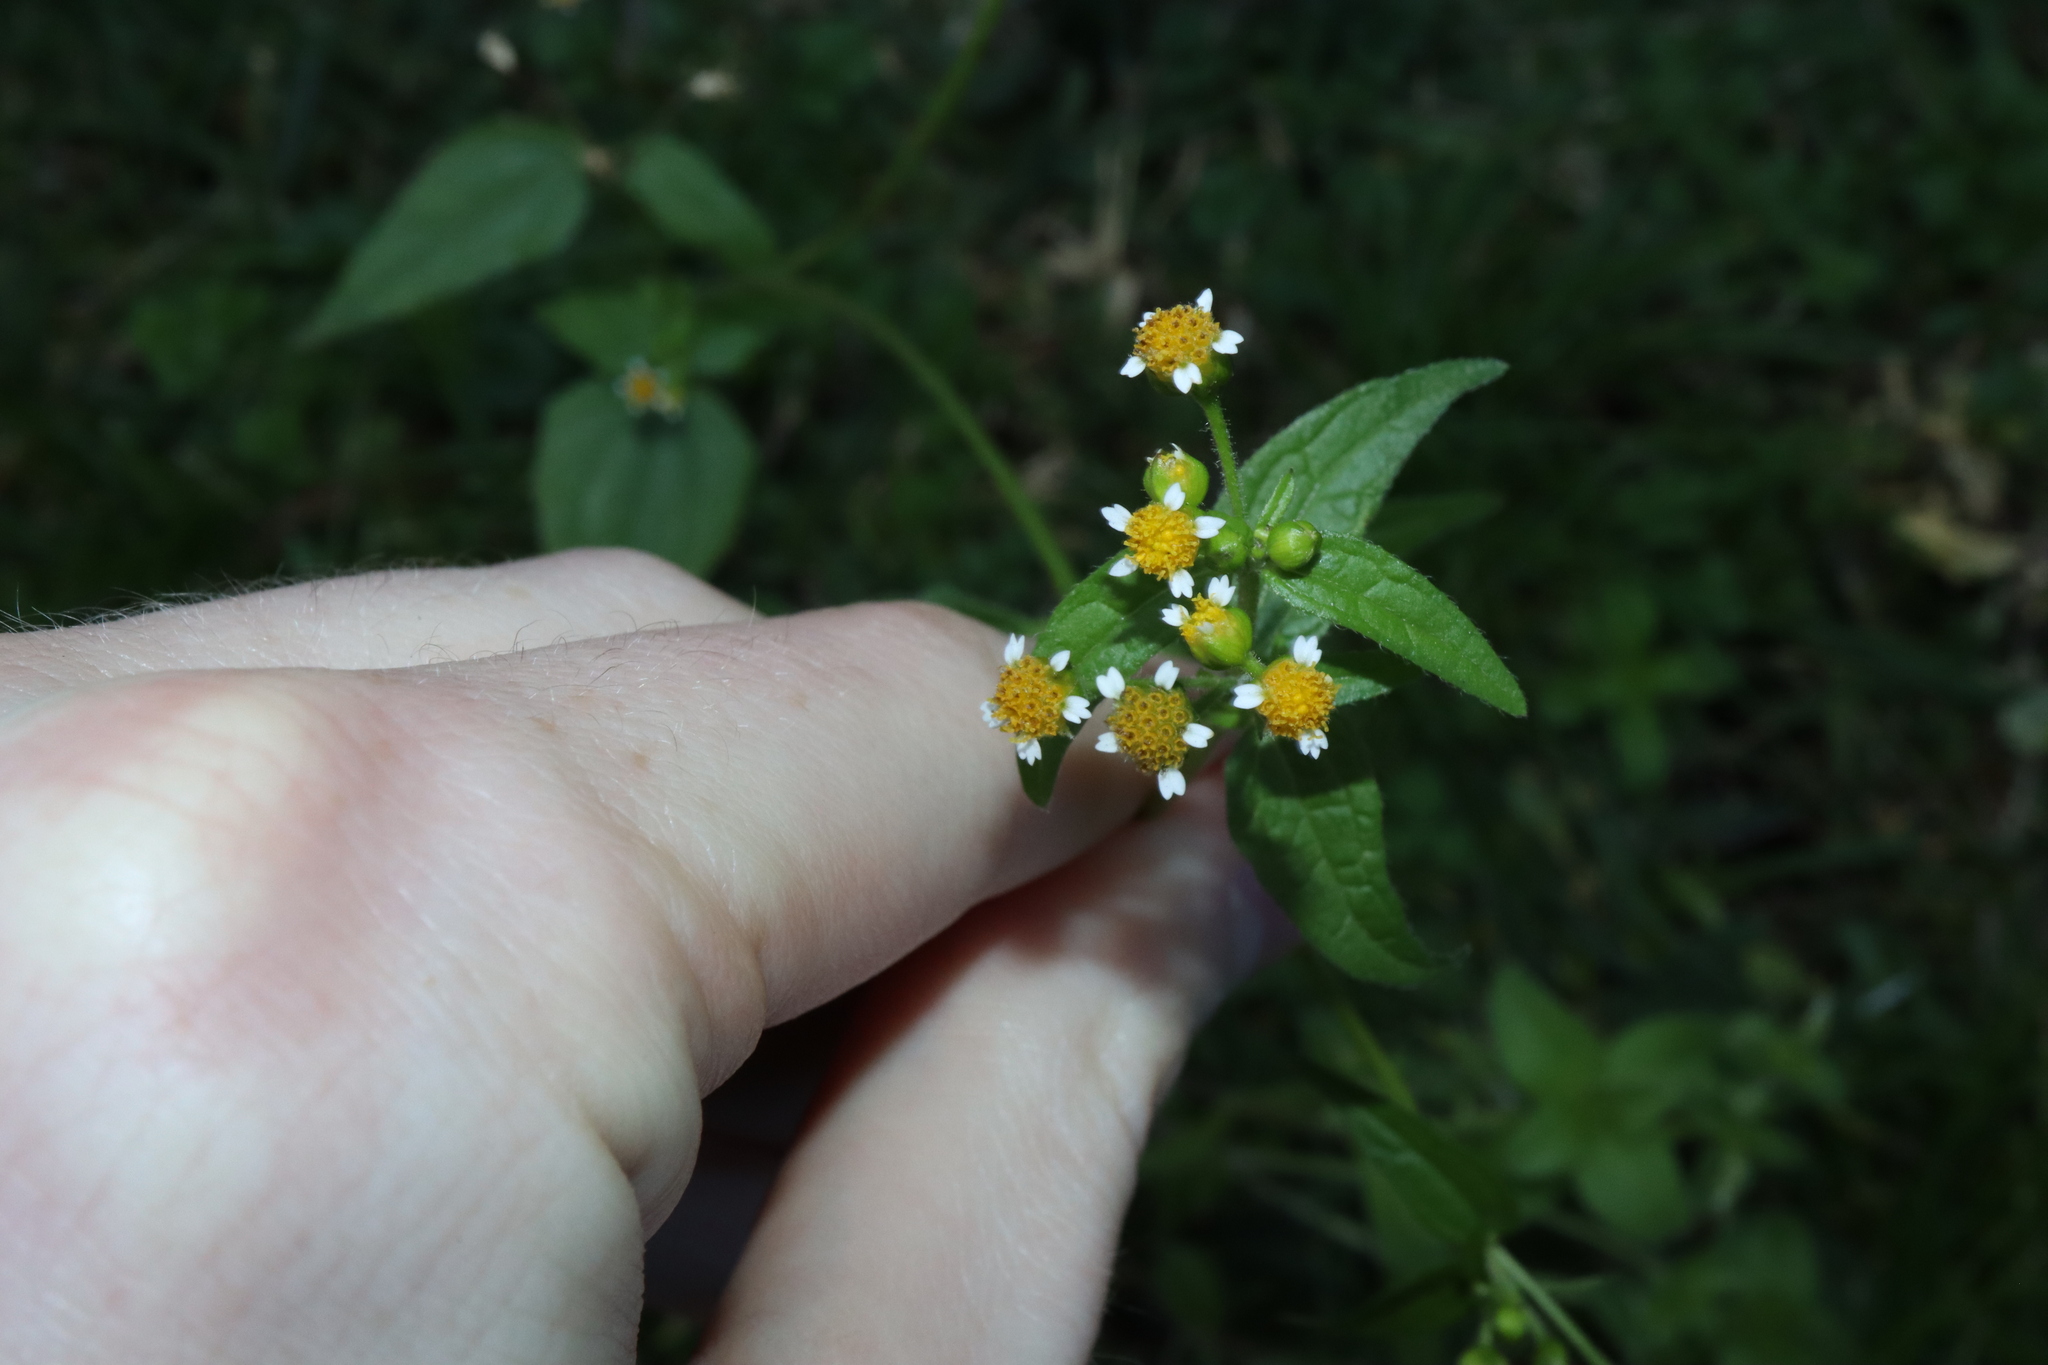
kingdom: Plantae
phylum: Tracheophyta
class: Magnoliopsida
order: Asterales
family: Asteraceae
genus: Galinsoga
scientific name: Galinsoga parviflora
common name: Gallant soldier
